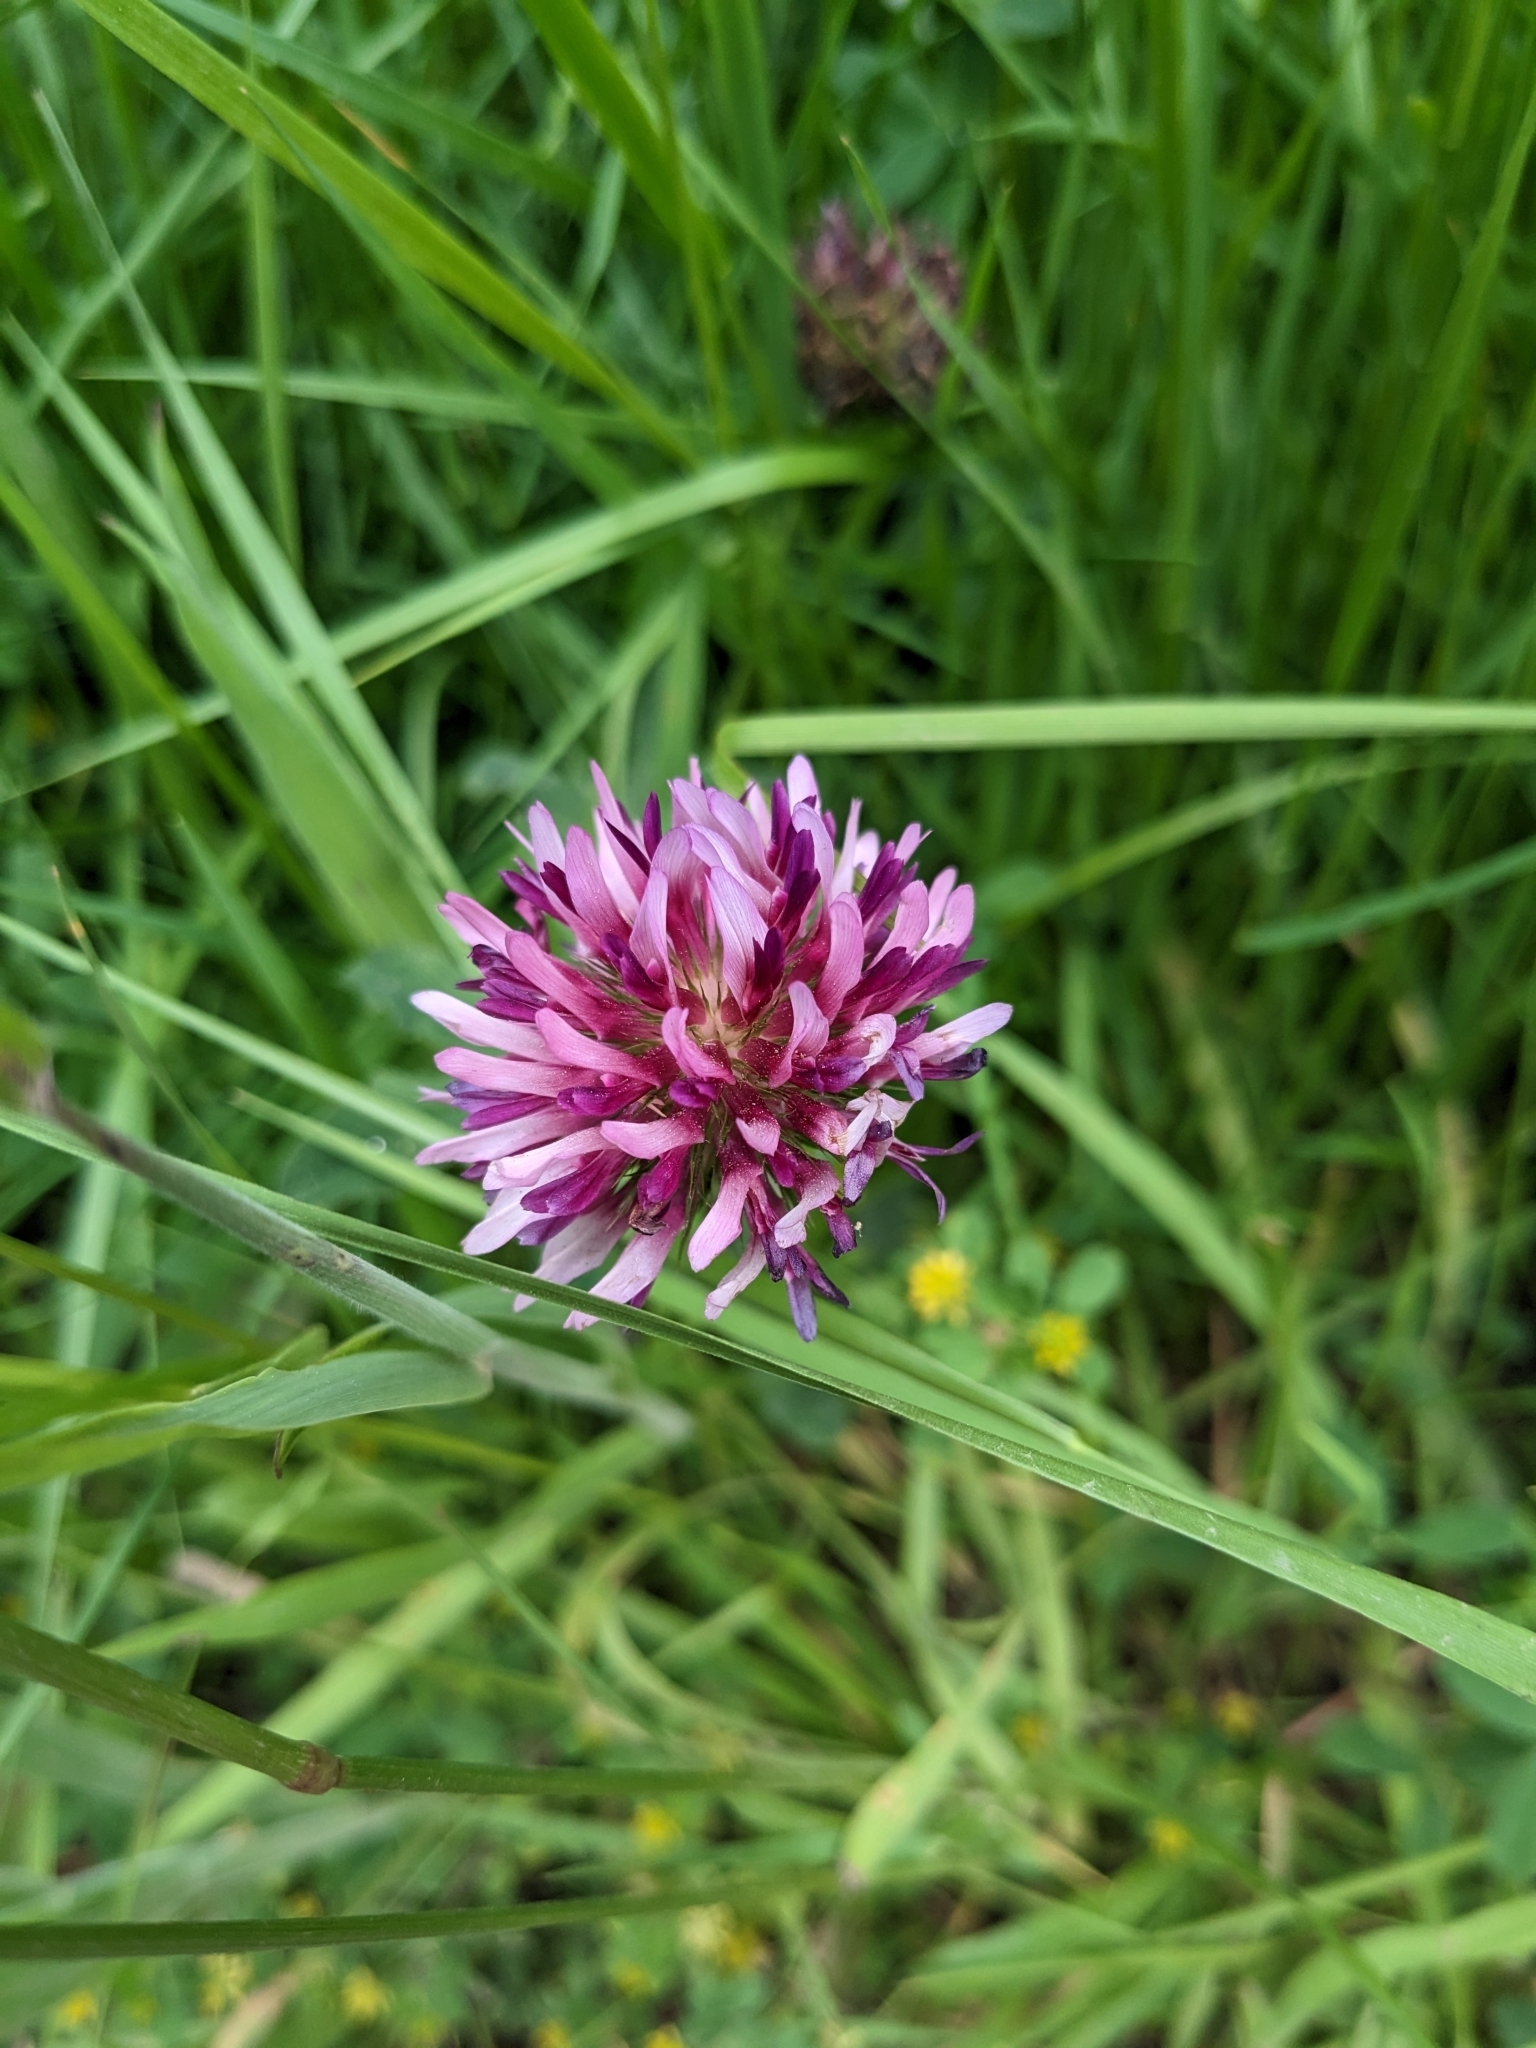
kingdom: Plantae
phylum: Tracheophyta
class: Magnoliopsida
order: Fabales
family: Fabaceae
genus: Trifolium
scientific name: Trifolium wormskioldii
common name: Springbank clover
